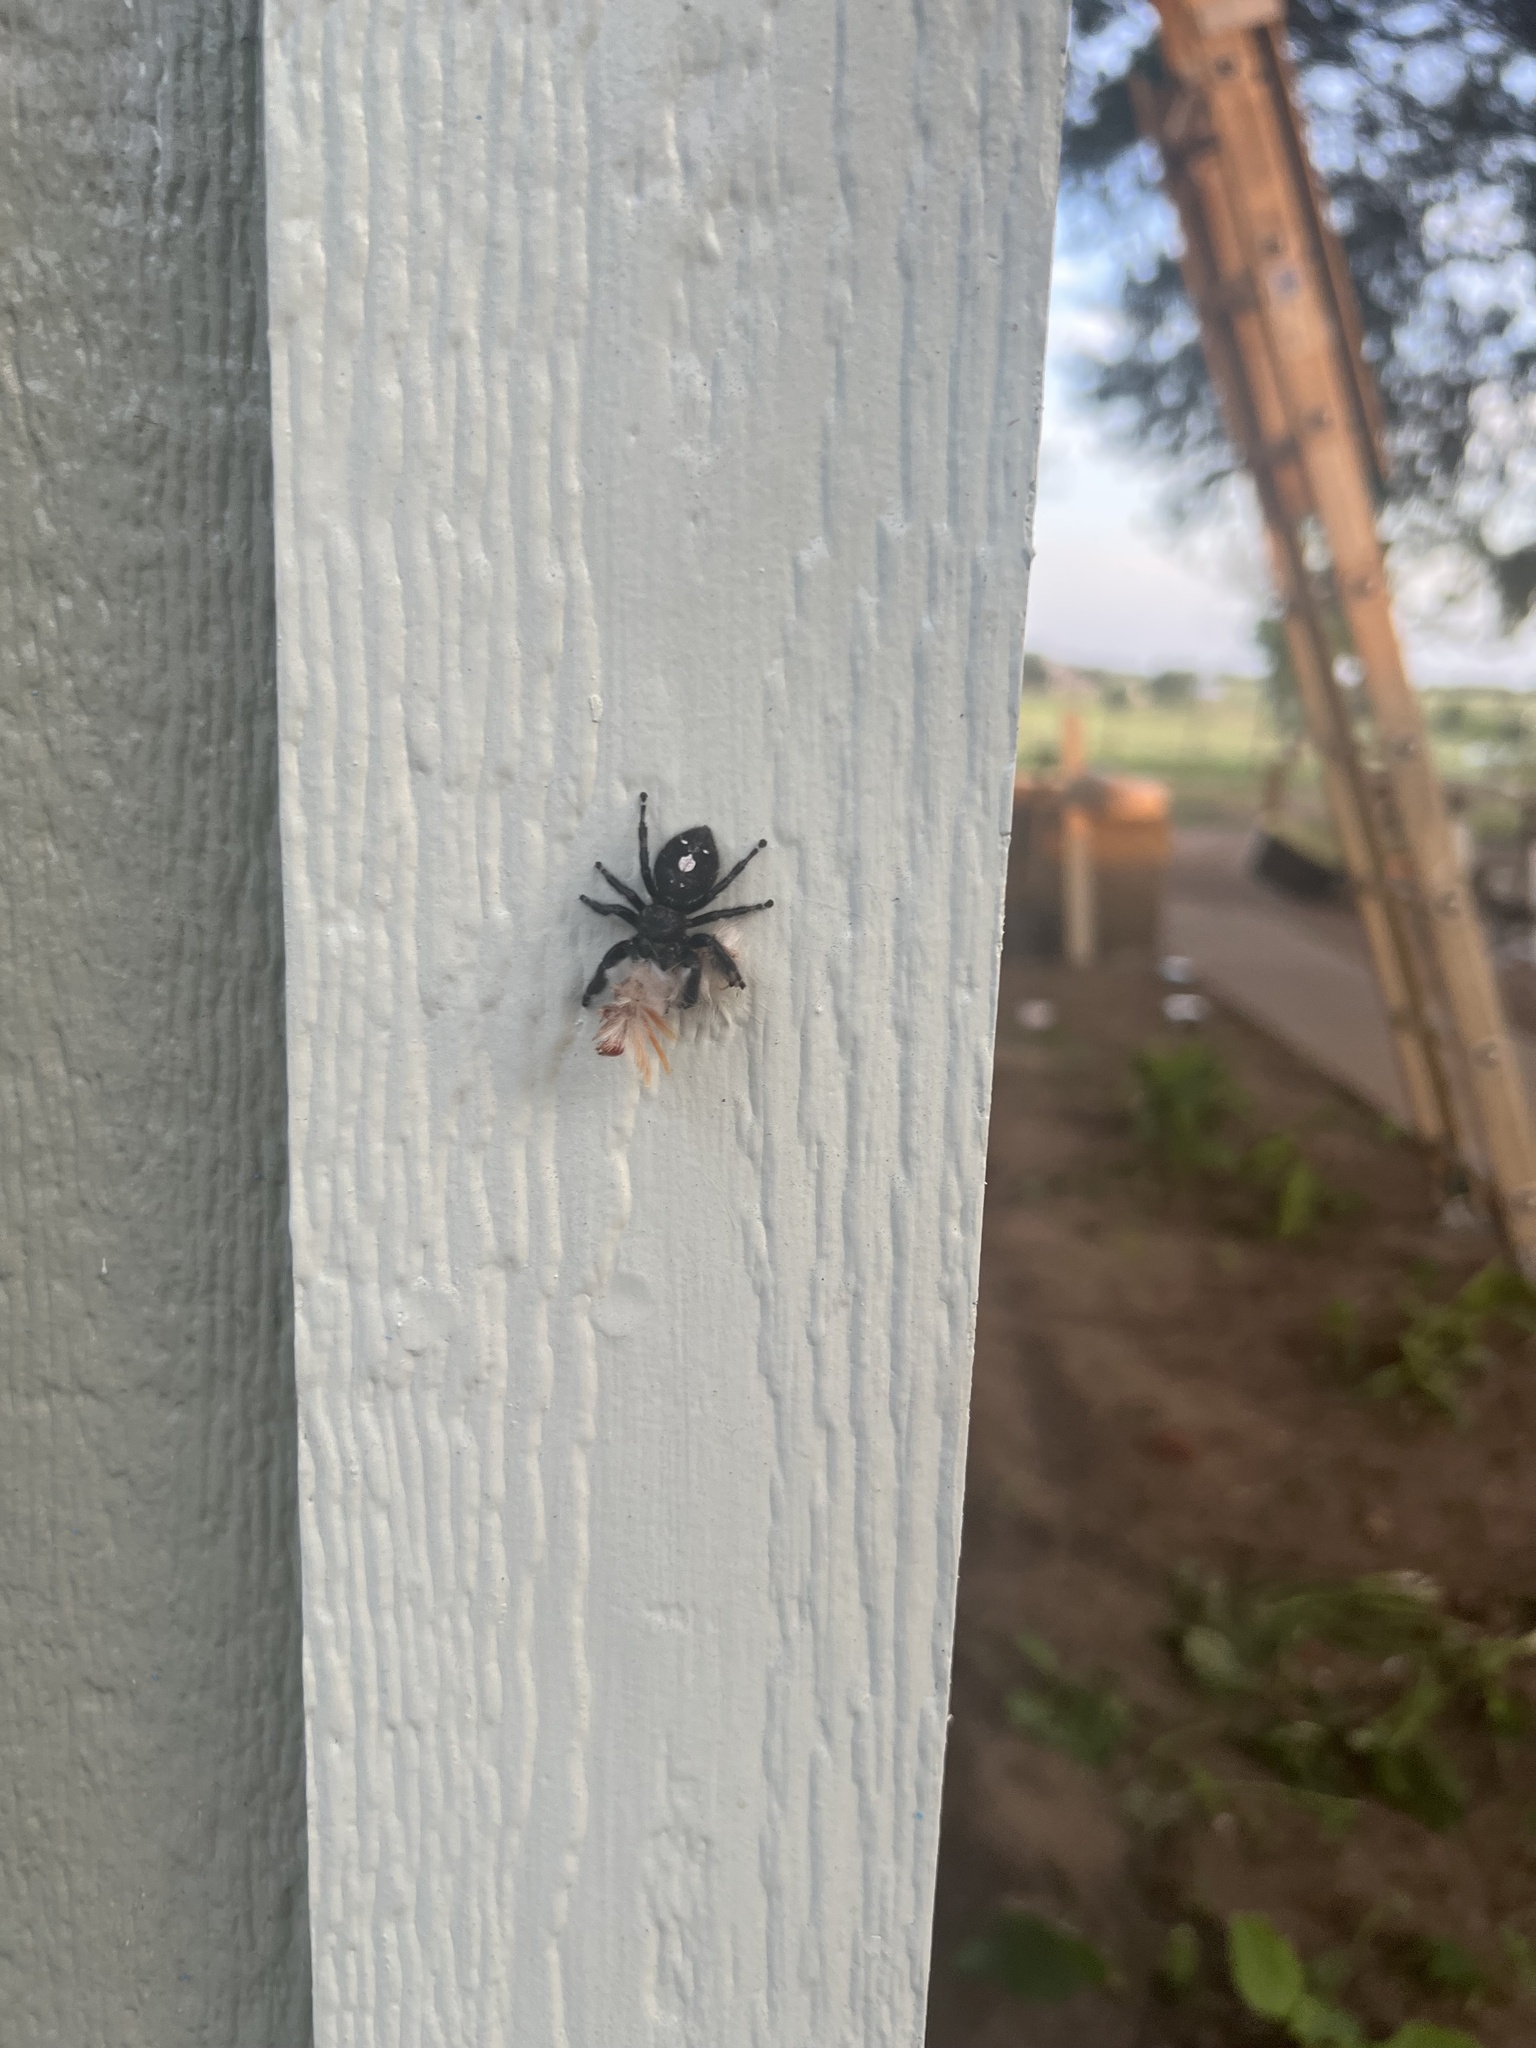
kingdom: Animalia
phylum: Arthropoda
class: Arachnida
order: Araneae
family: Salticidae
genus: Phidippus
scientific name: Phidippus audax
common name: Bold jumper
